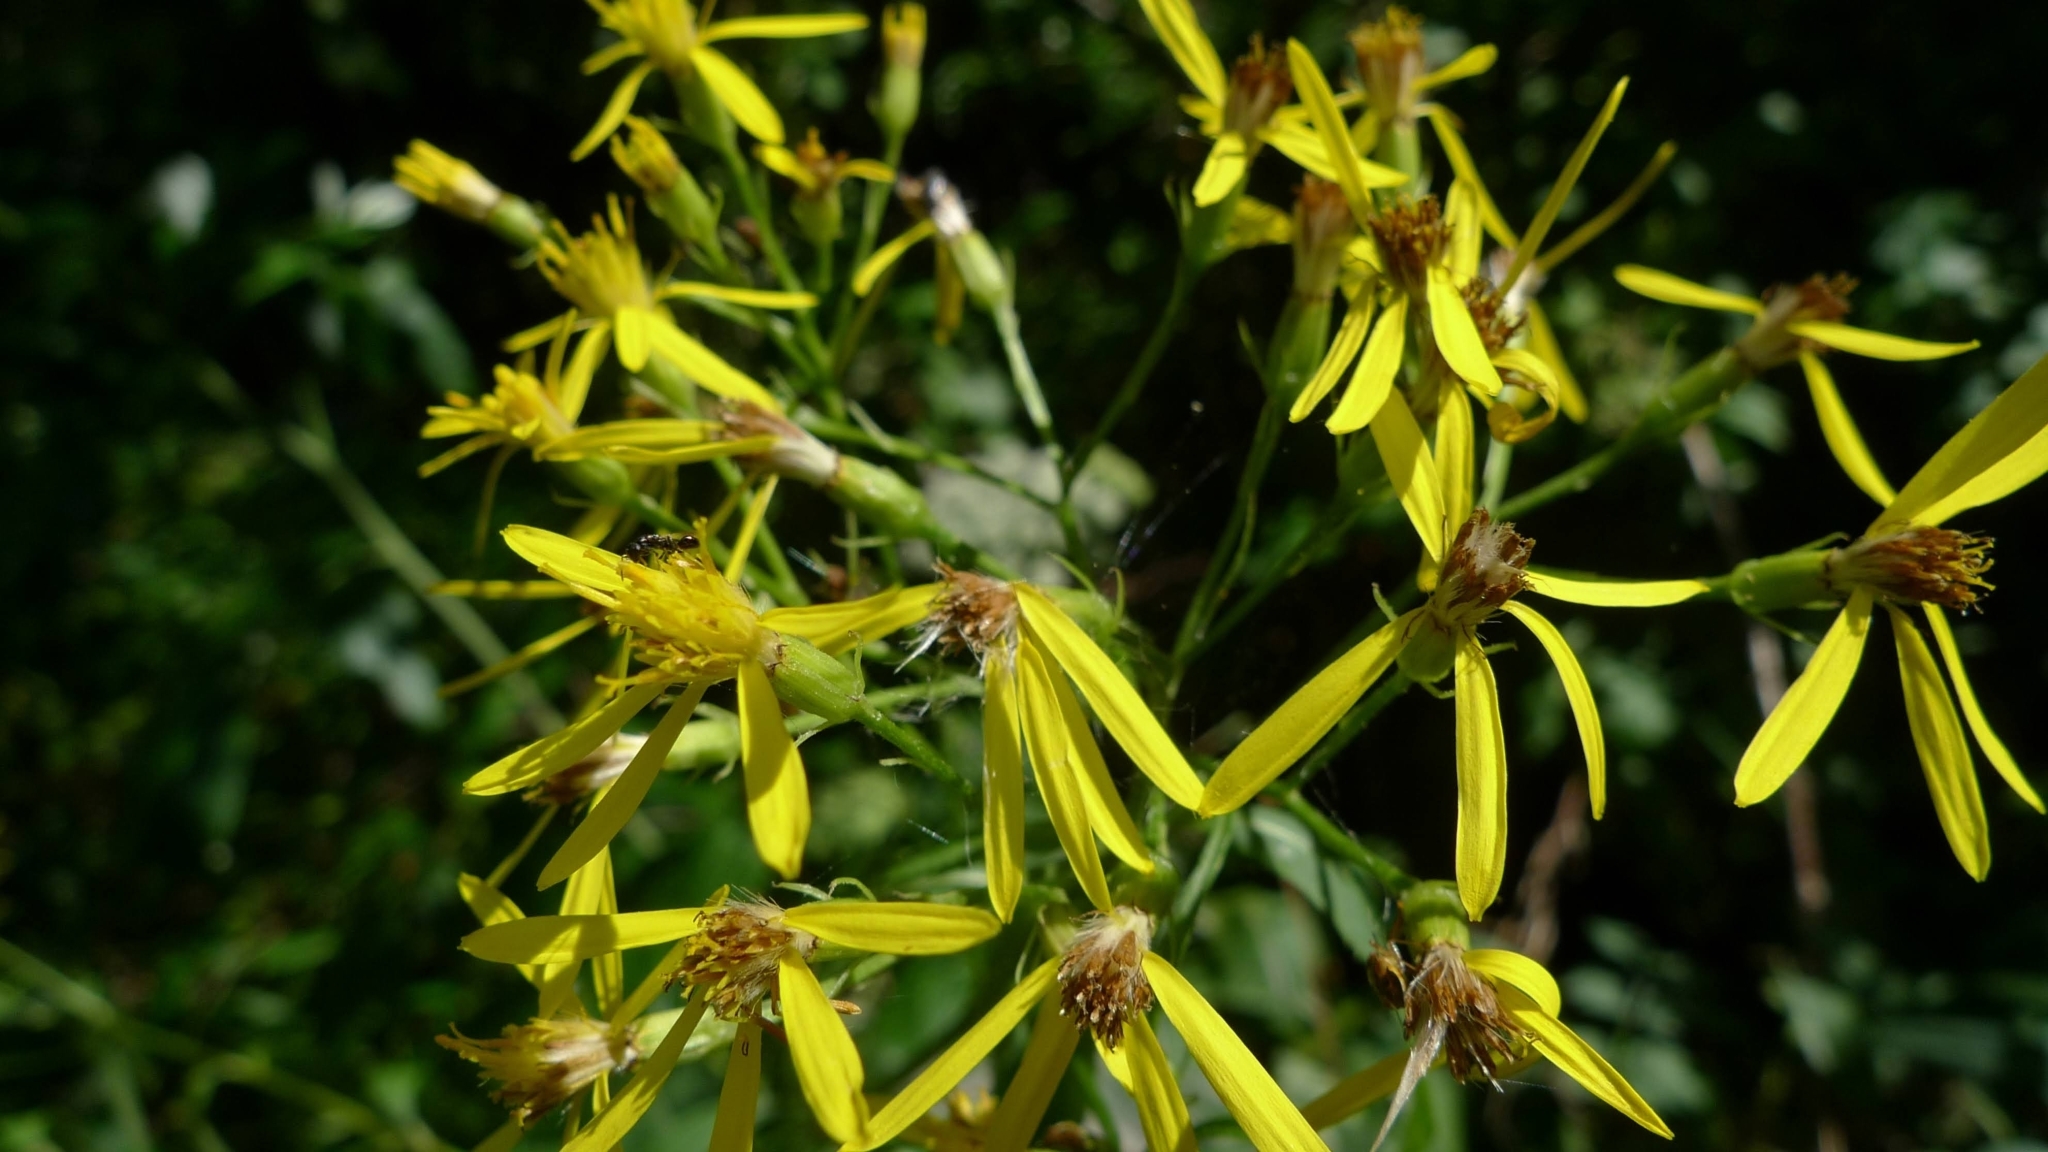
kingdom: Plantae
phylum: Tracheophyta
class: Magnoliopsida
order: Asterales
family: Asteraceae
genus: Senecio
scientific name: Senecio ovatus
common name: Wood ragwort
